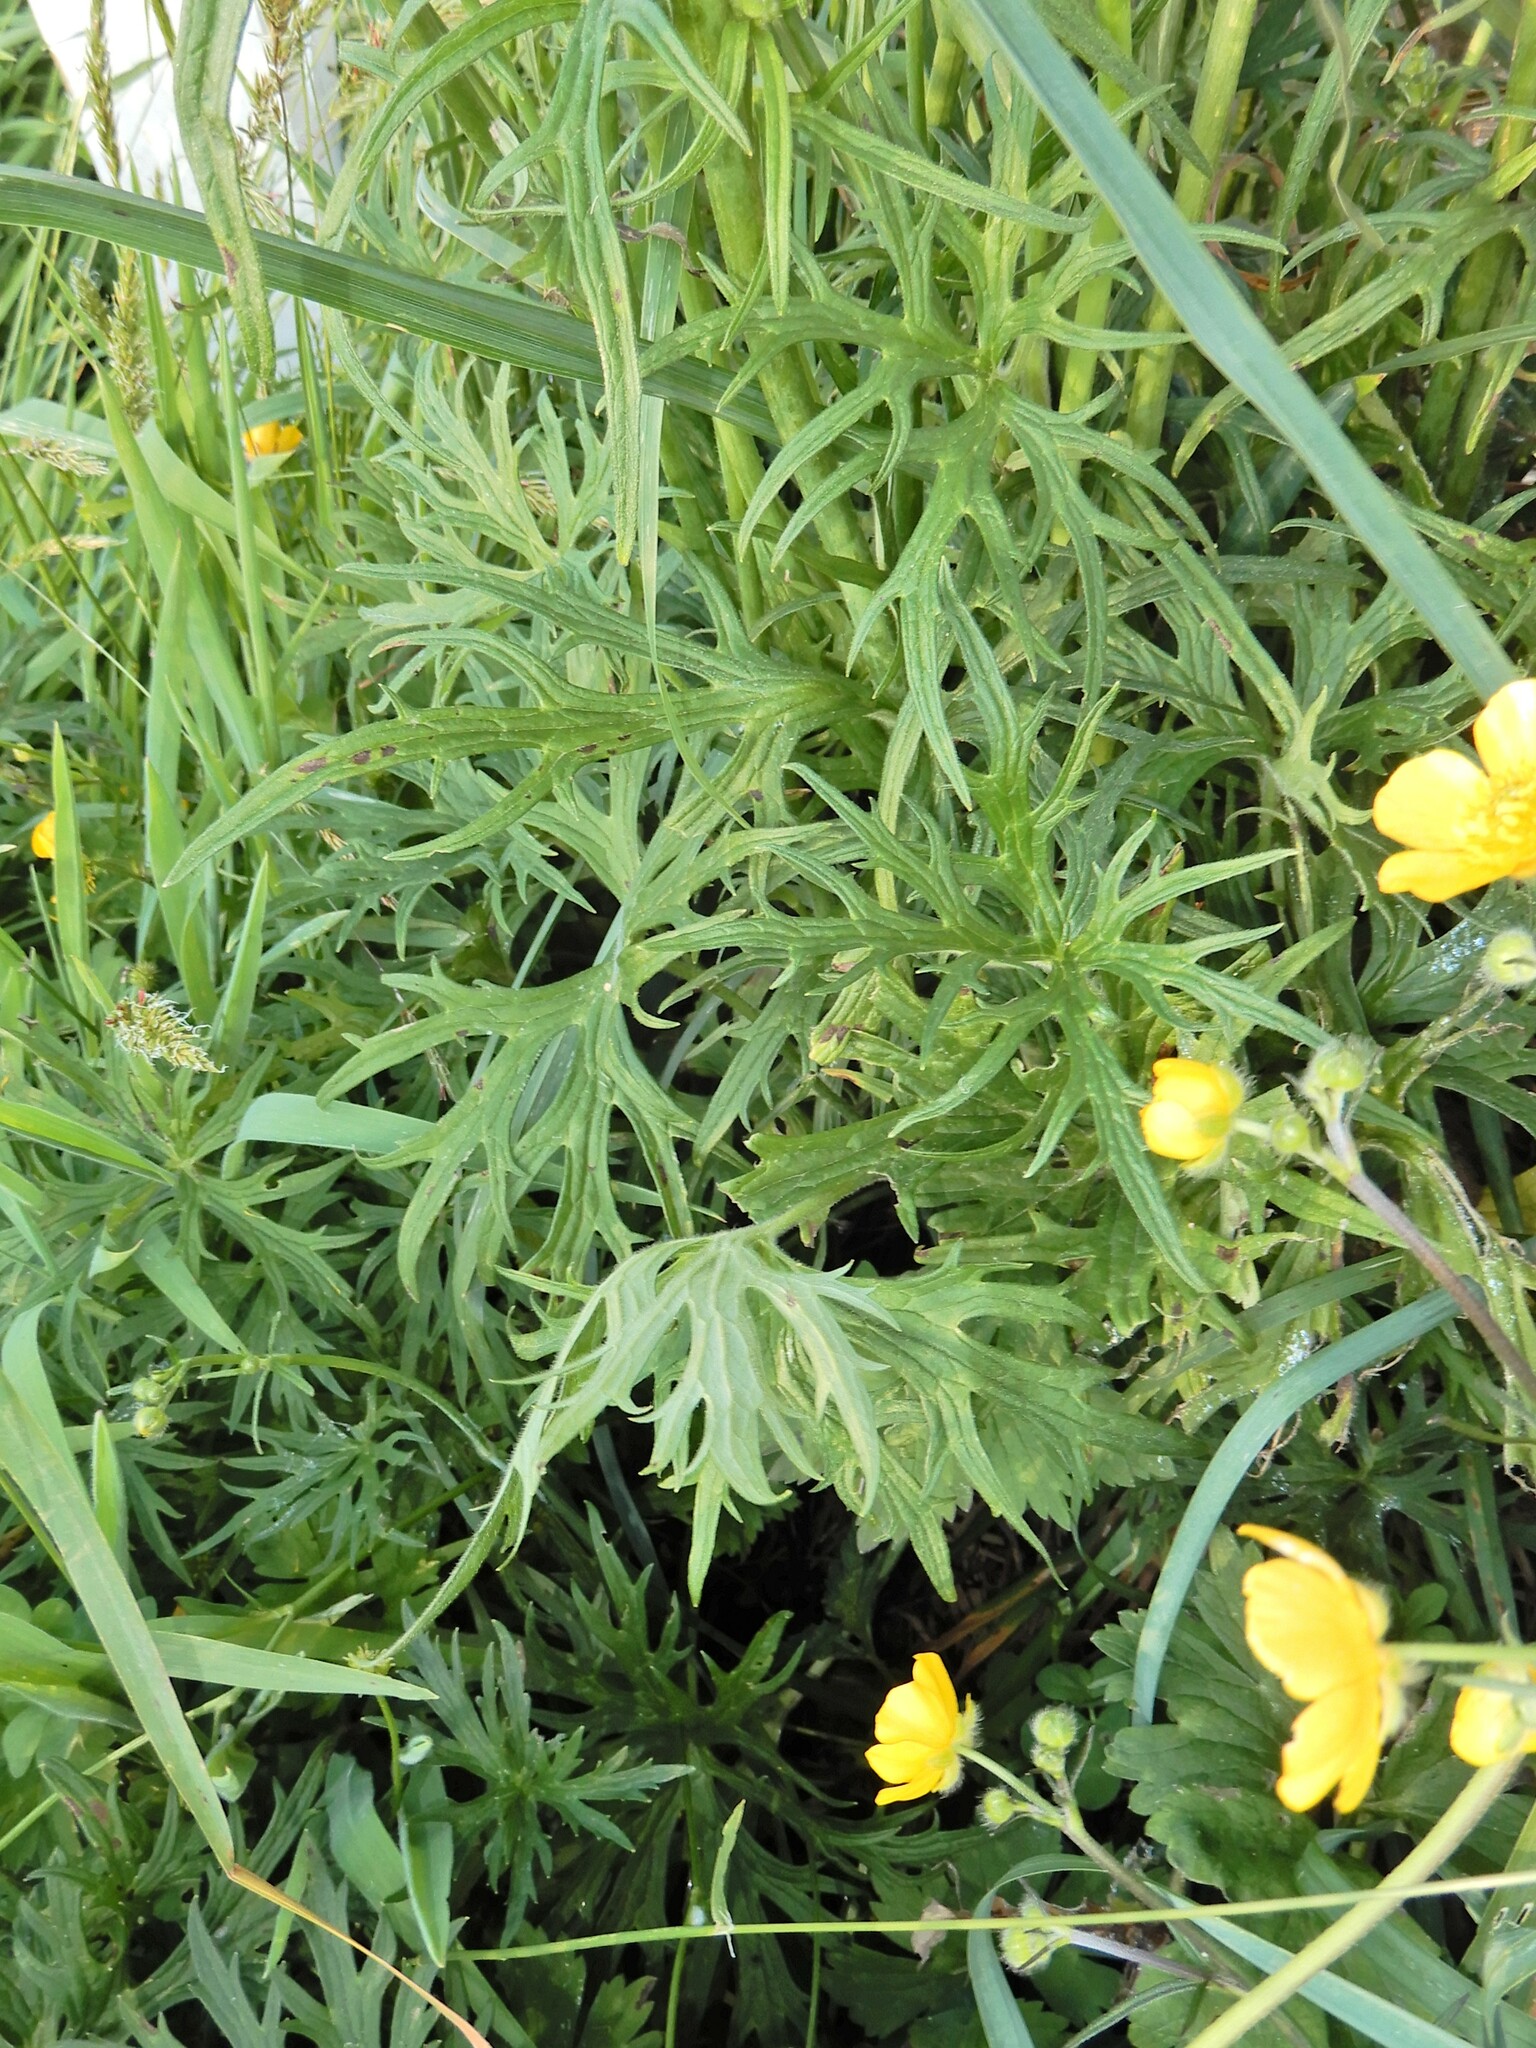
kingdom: Plantae
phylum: Tracheophyta
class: Magnoliopsida
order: Ranunculales
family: Ranunculaceae
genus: Ranunculus
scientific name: Ranunculus acris
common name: Meadow buttercup
